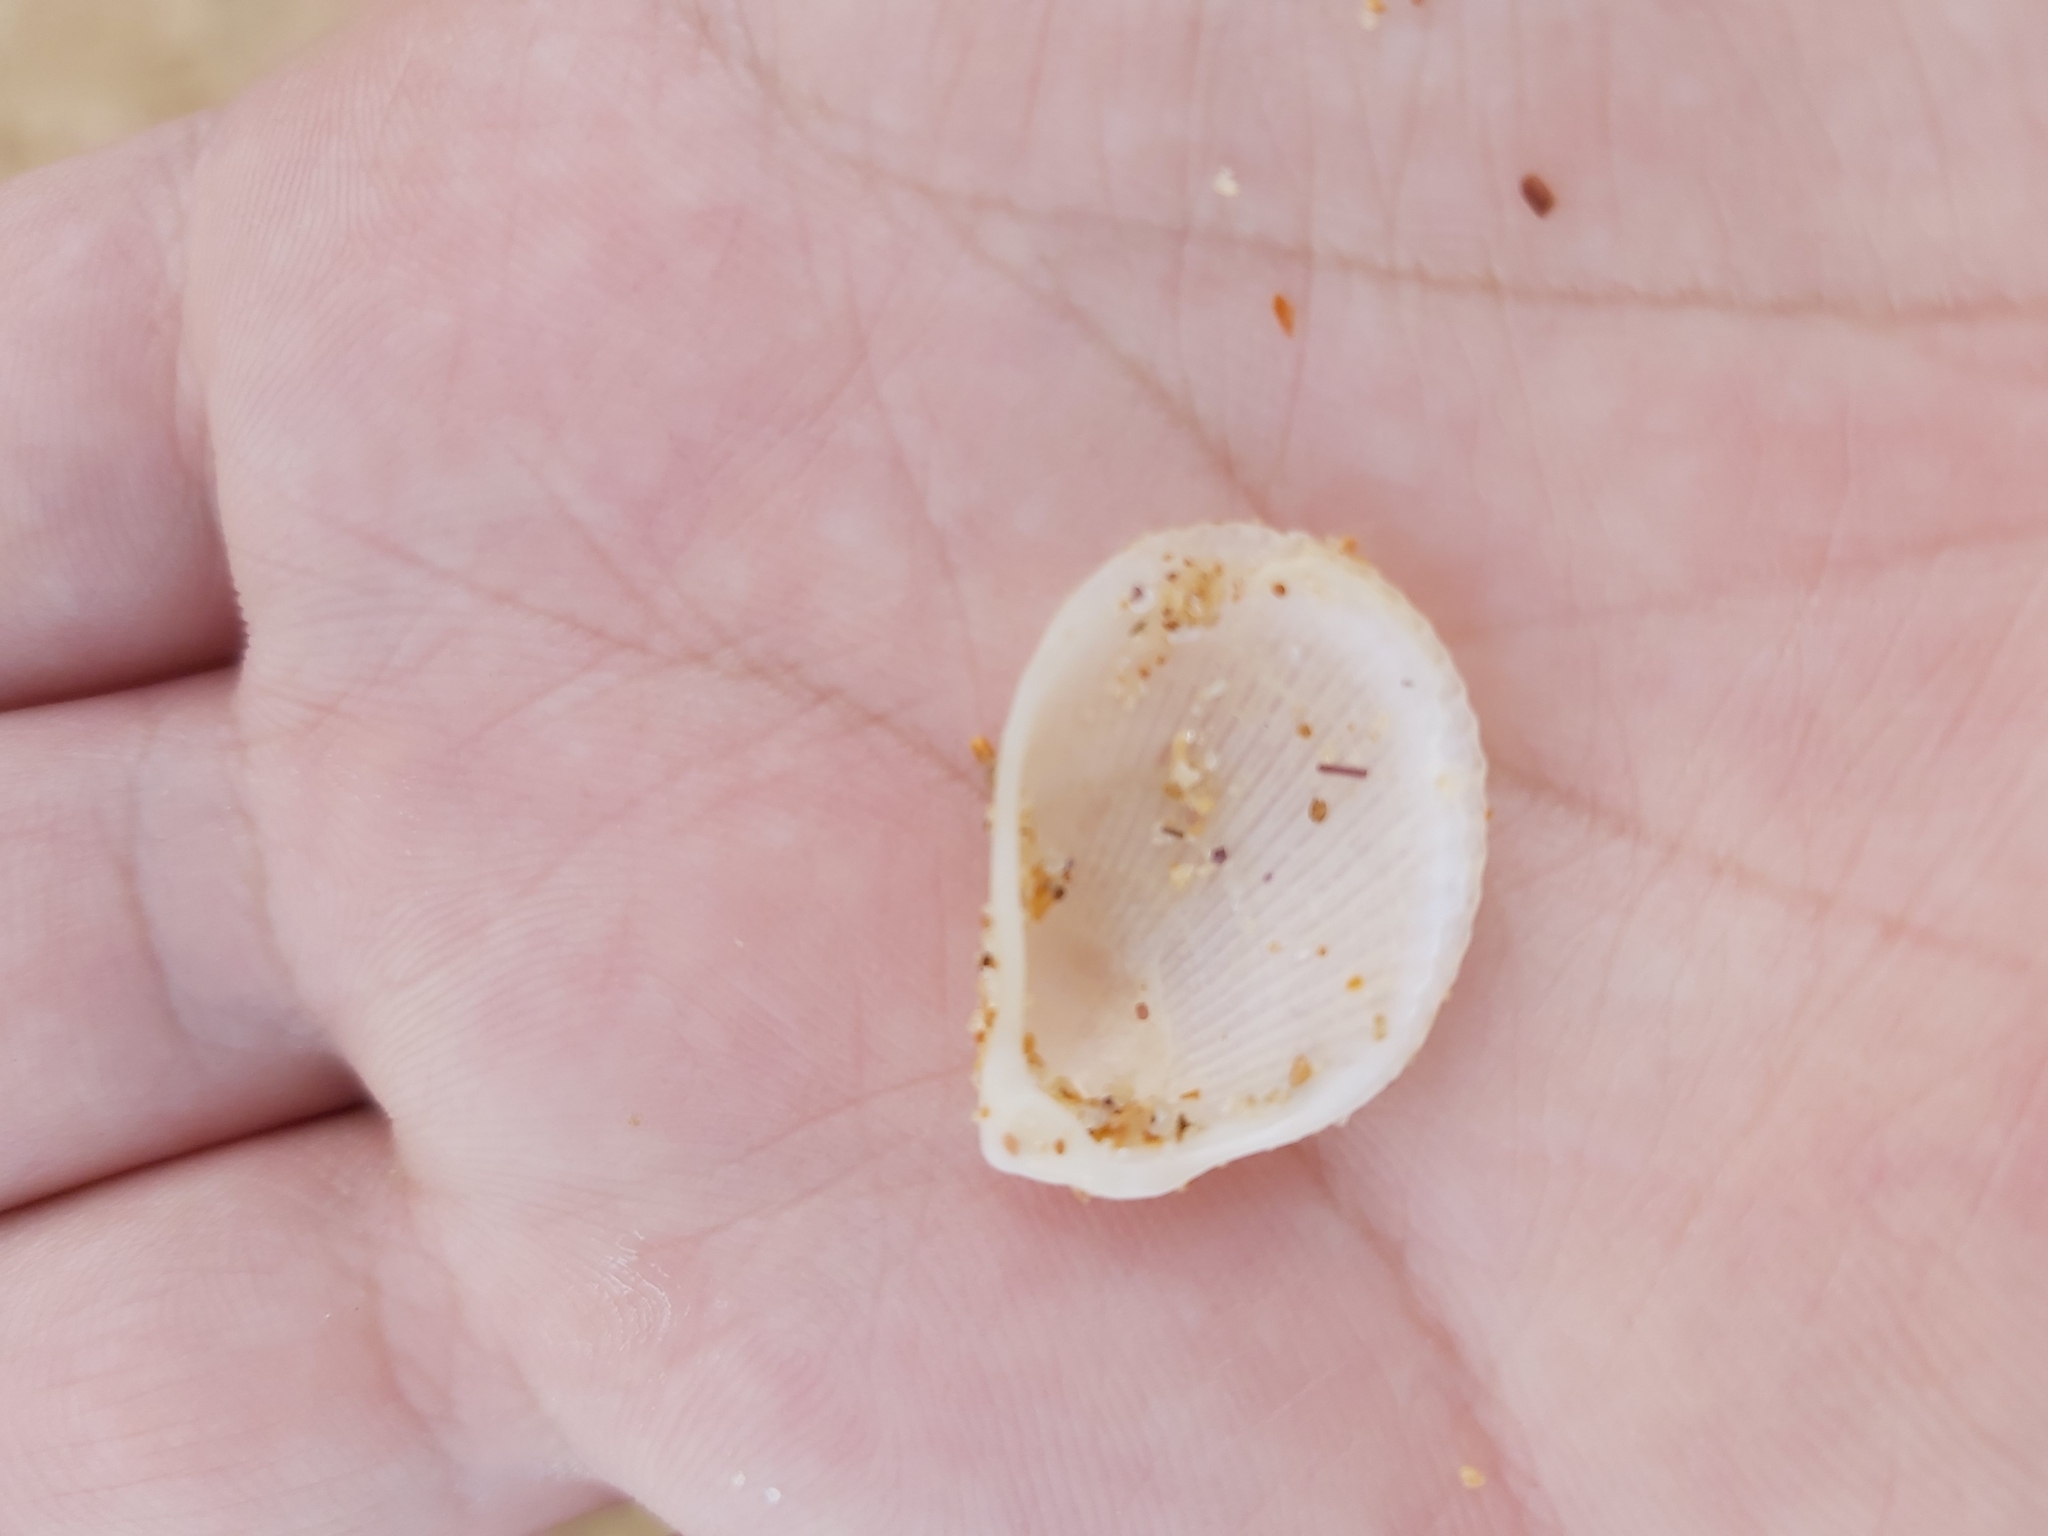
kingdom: Animalia
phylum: Mollusca
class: Bivalvia
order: Limida
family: Limidae
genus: Lima
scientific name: Lima nimbifer
